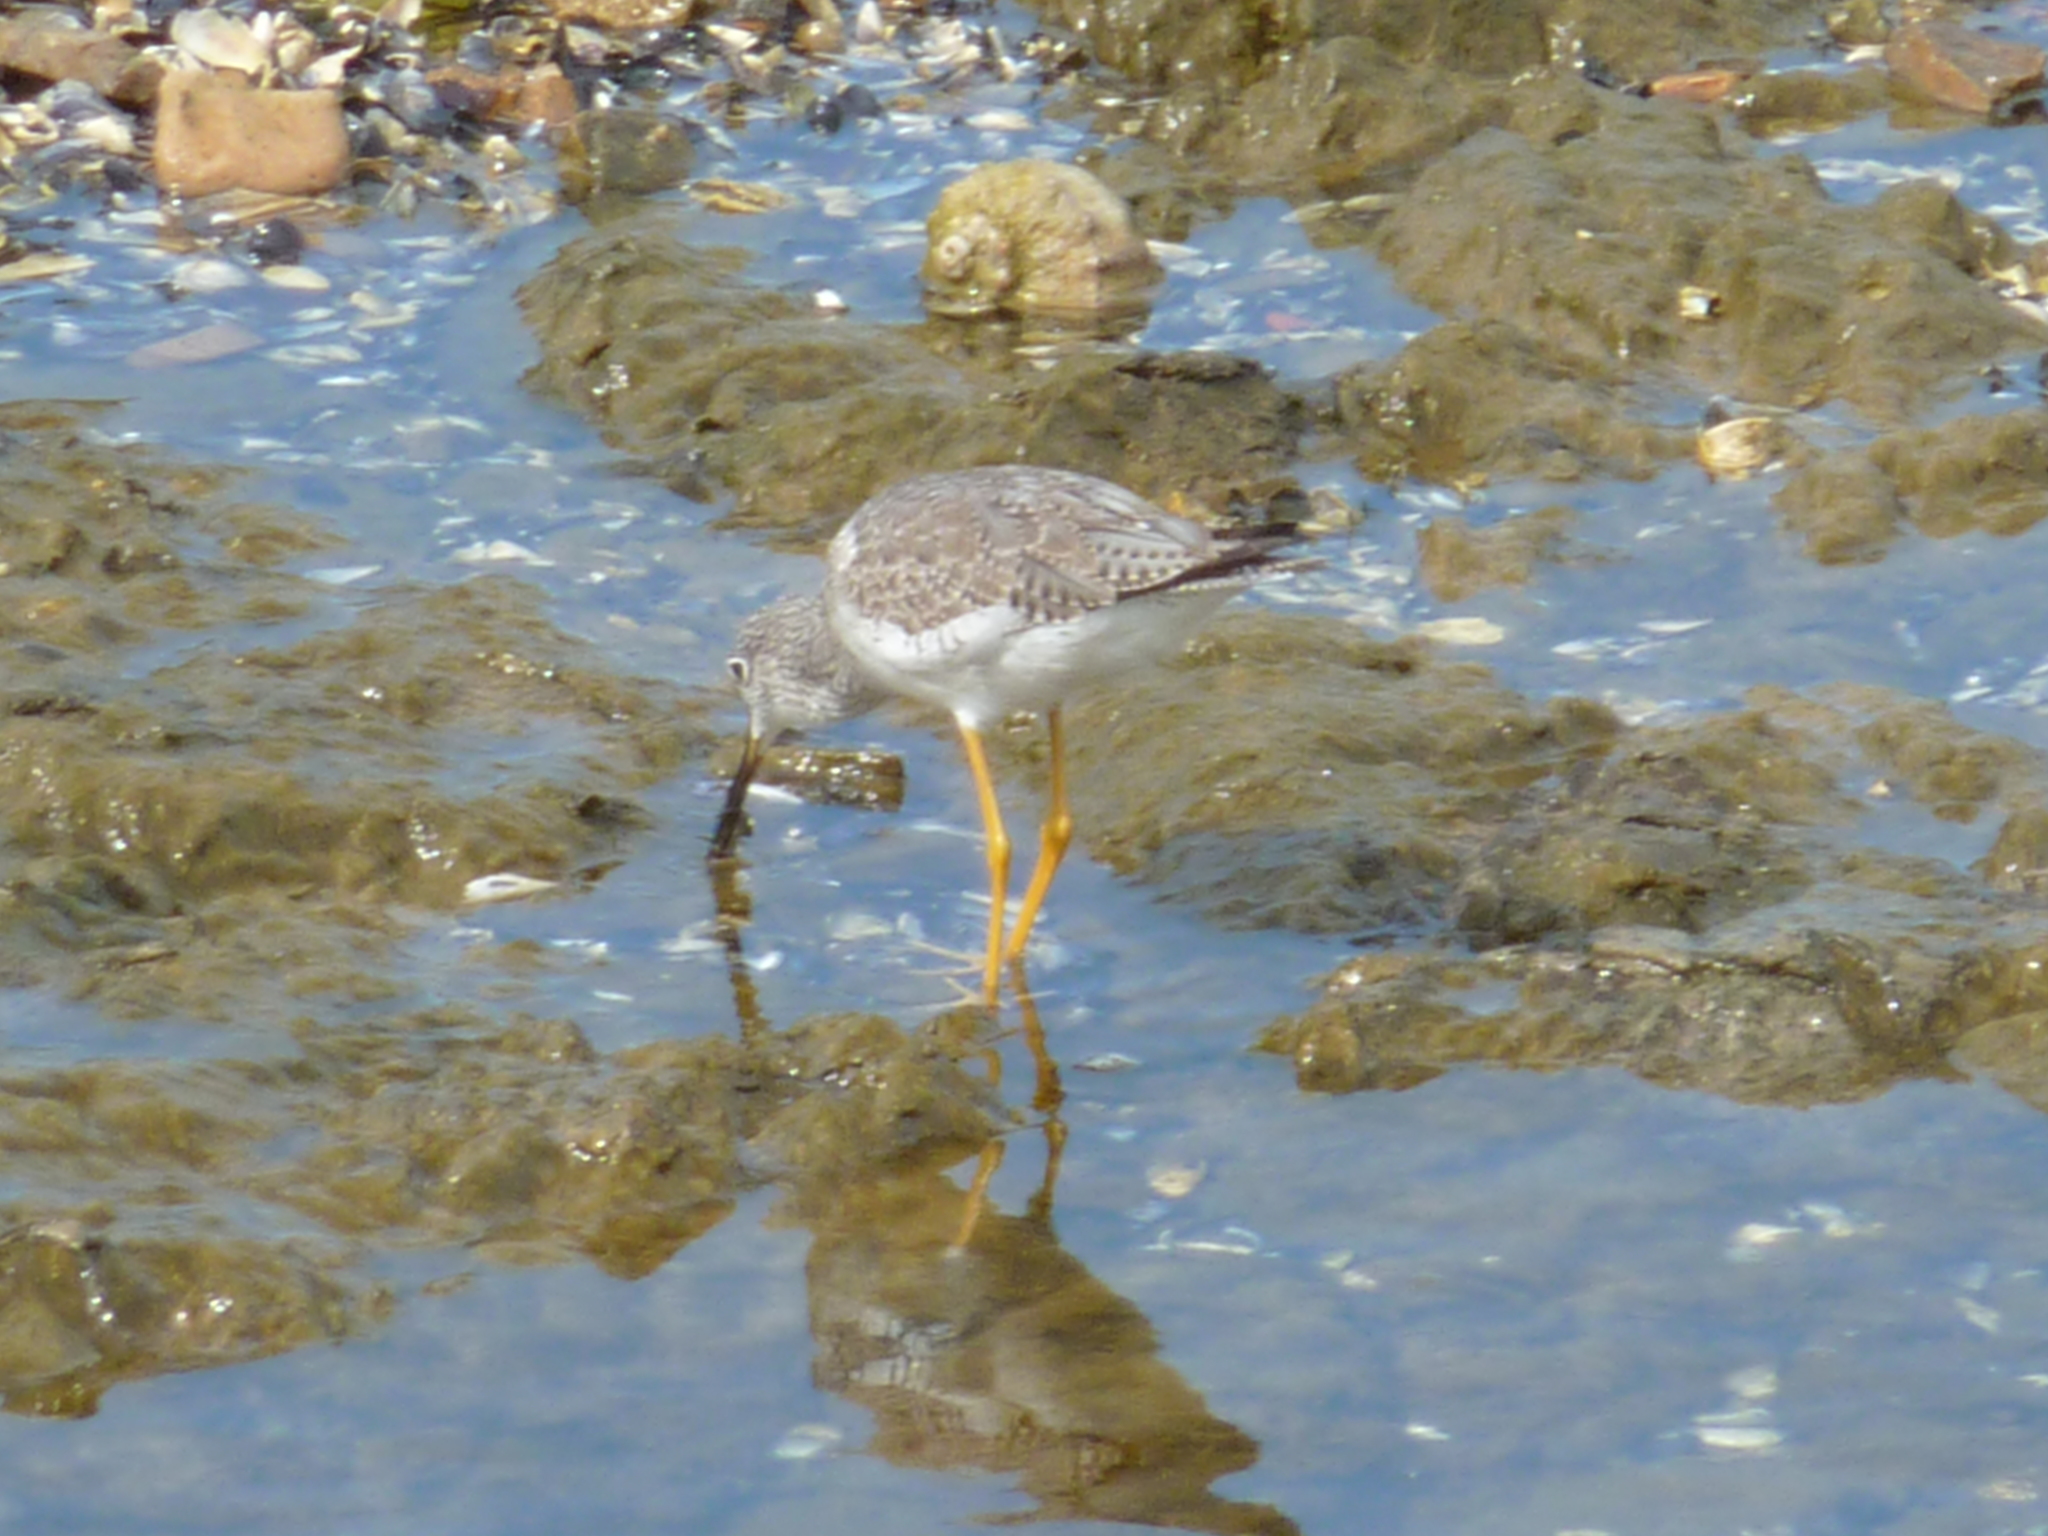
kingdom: Animalia
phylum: Chordata
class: Aves
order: Charadriiformes
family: Scolopacidae
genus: Tringa
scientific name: Tringa melanoleuca
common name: Greater yellowlegs
